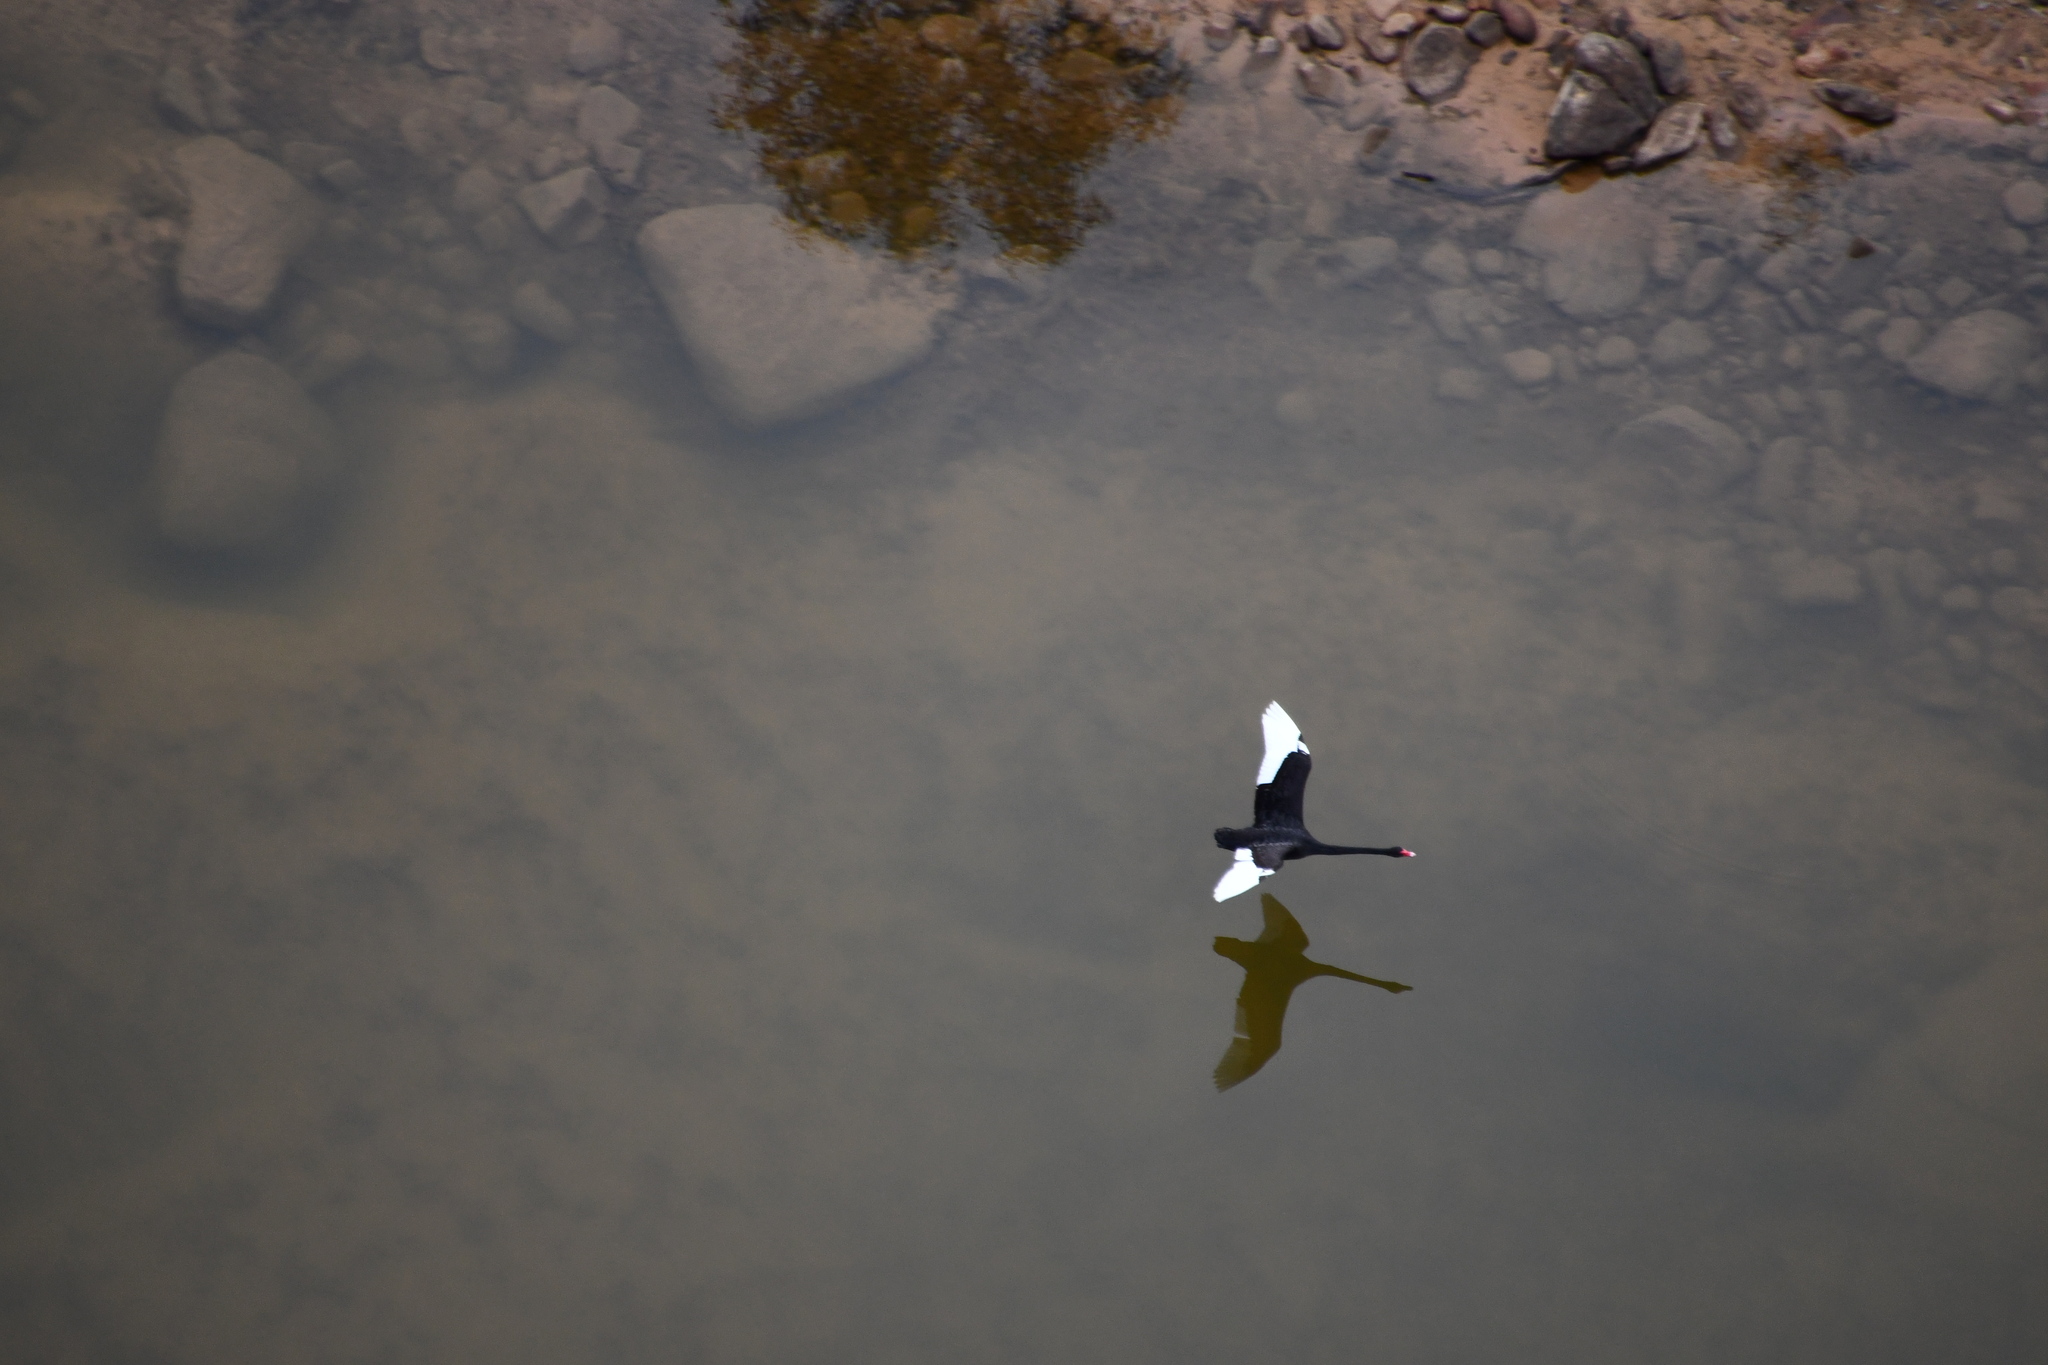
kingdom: Animalia
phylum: Chordata
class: Aves
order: Anseriformes
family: Anatidae
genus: Cygnus
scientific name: Cygnus atratus
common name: Black swan
